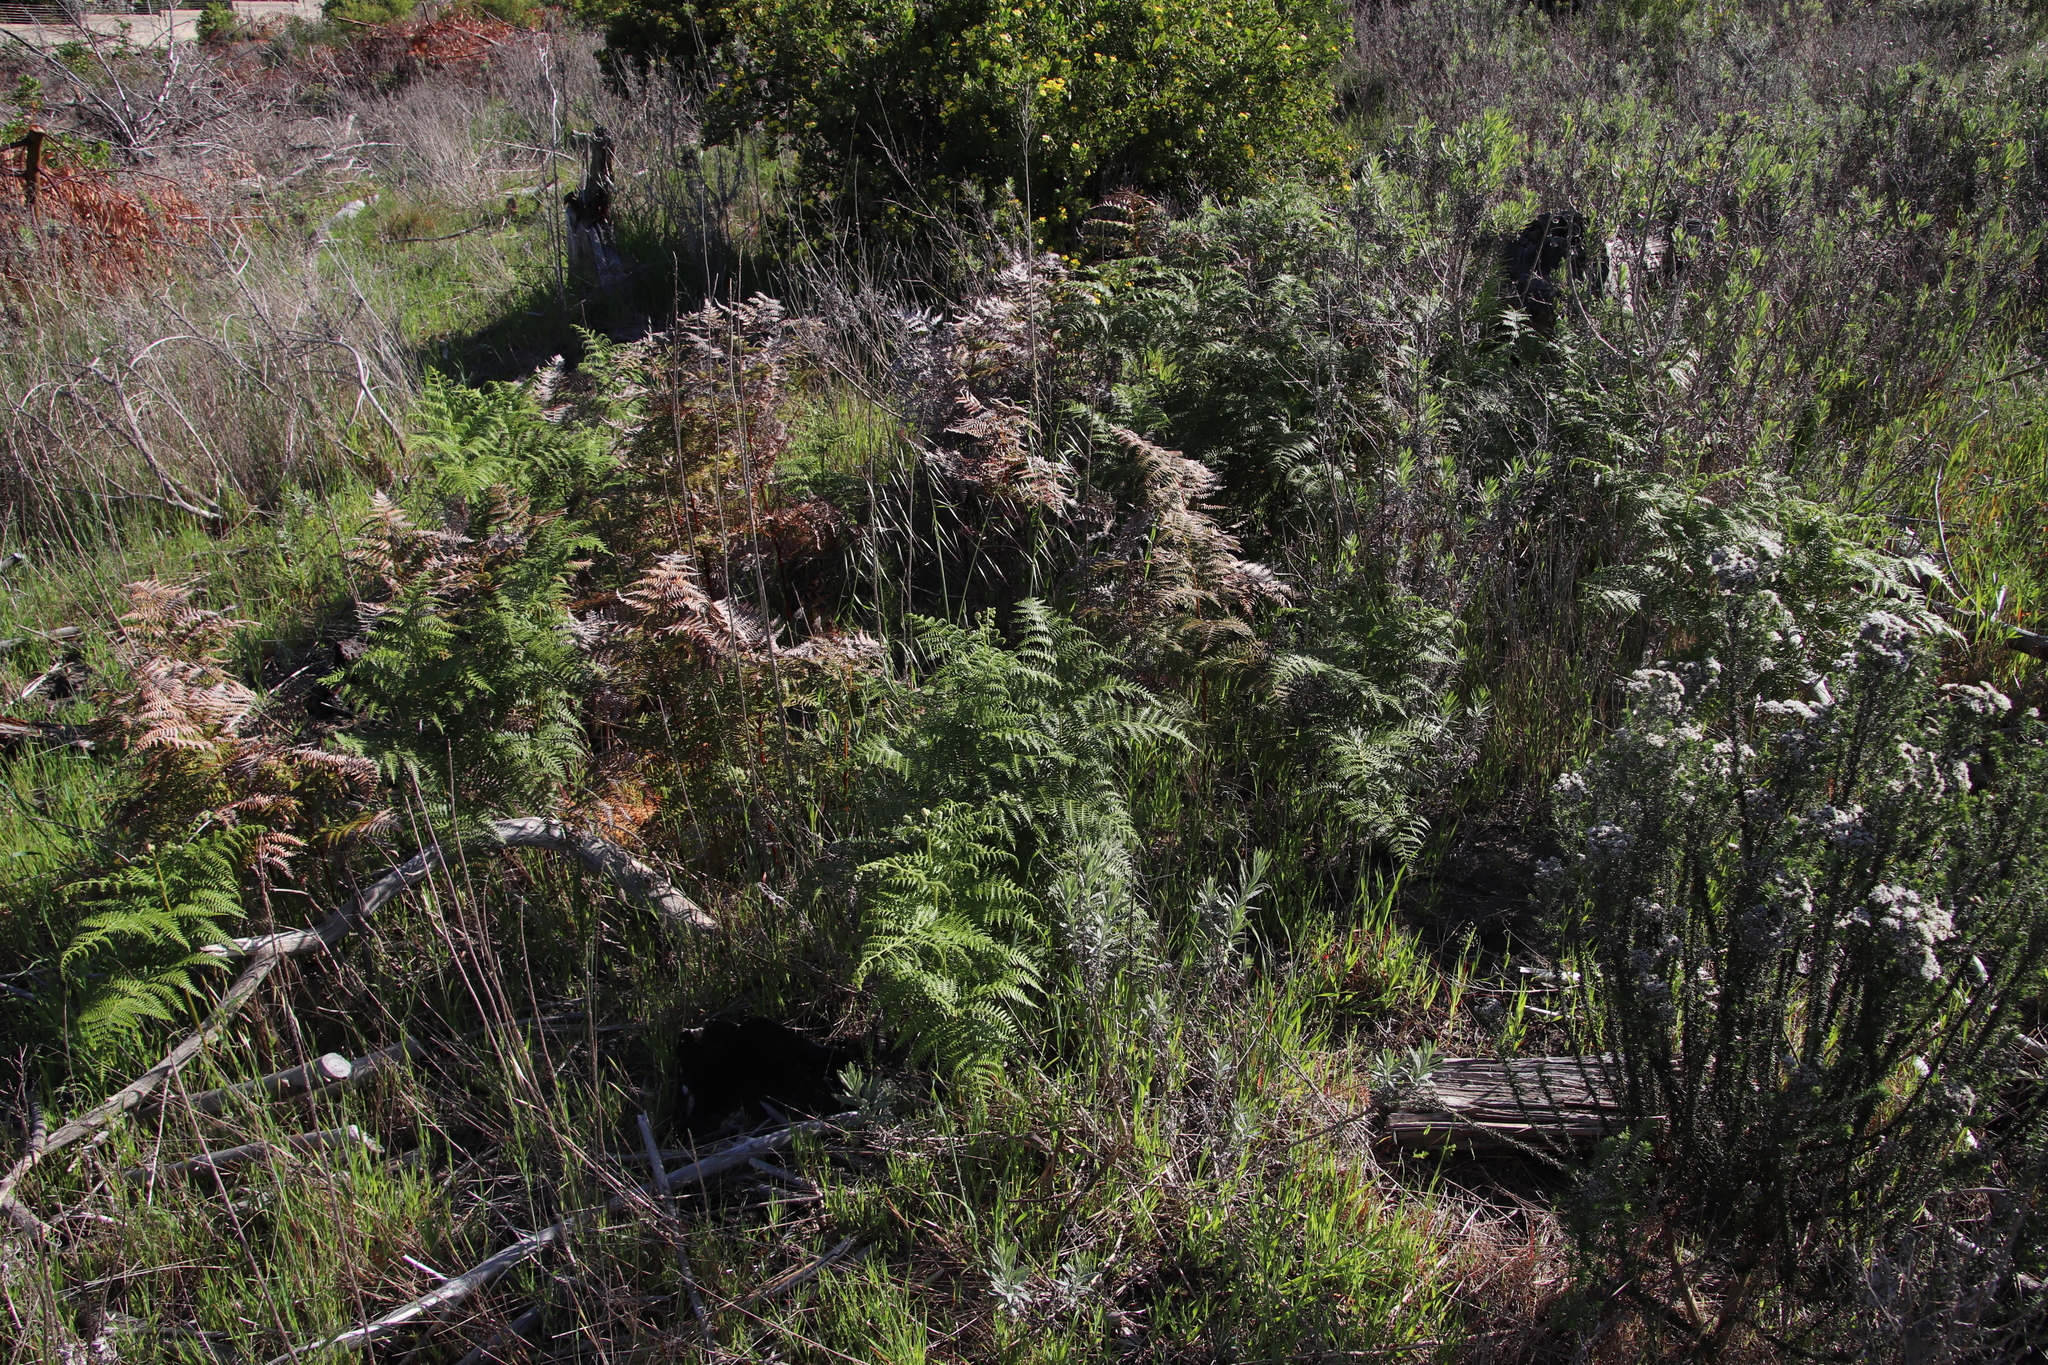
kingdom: Plantae
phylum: Tracheophyta
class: Polypodiopsida
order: Polypodiales
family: Dennstaedtiaceae
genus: Pteridium
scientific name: Pteridium aquilinum
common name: Bracken
